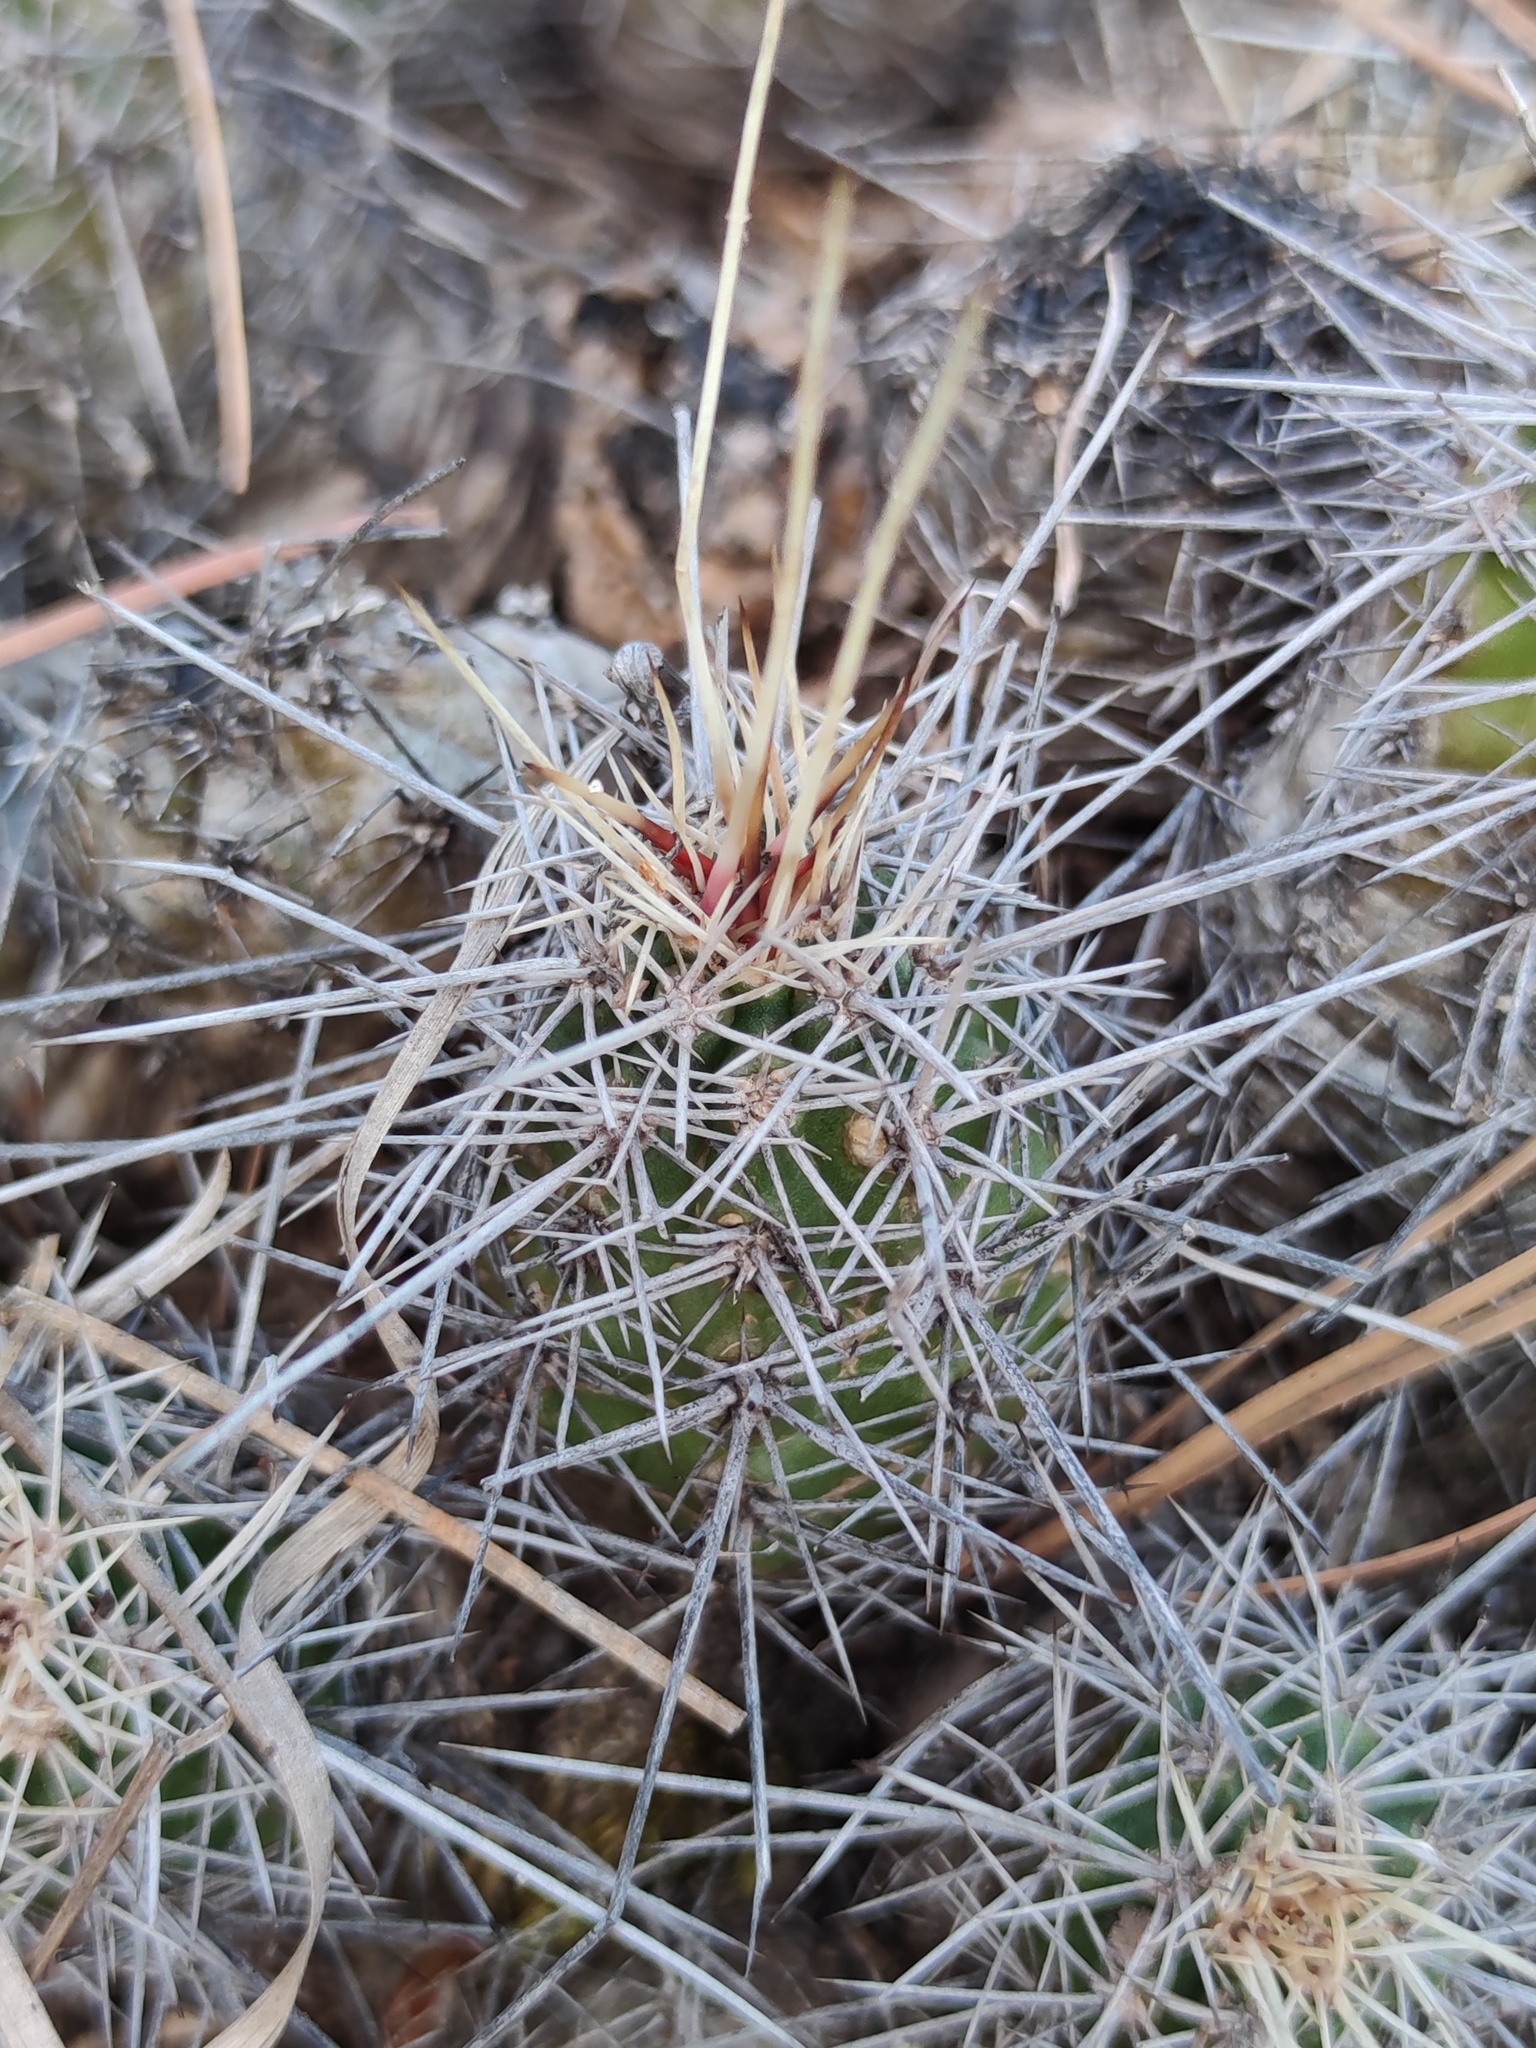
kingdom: Plantae
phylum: Tracheophyta
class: Magnoliopsida
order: Caryophyllales
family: Cactaceae
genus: Echinocereus
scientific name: Echinocereus salm-dyckianus
